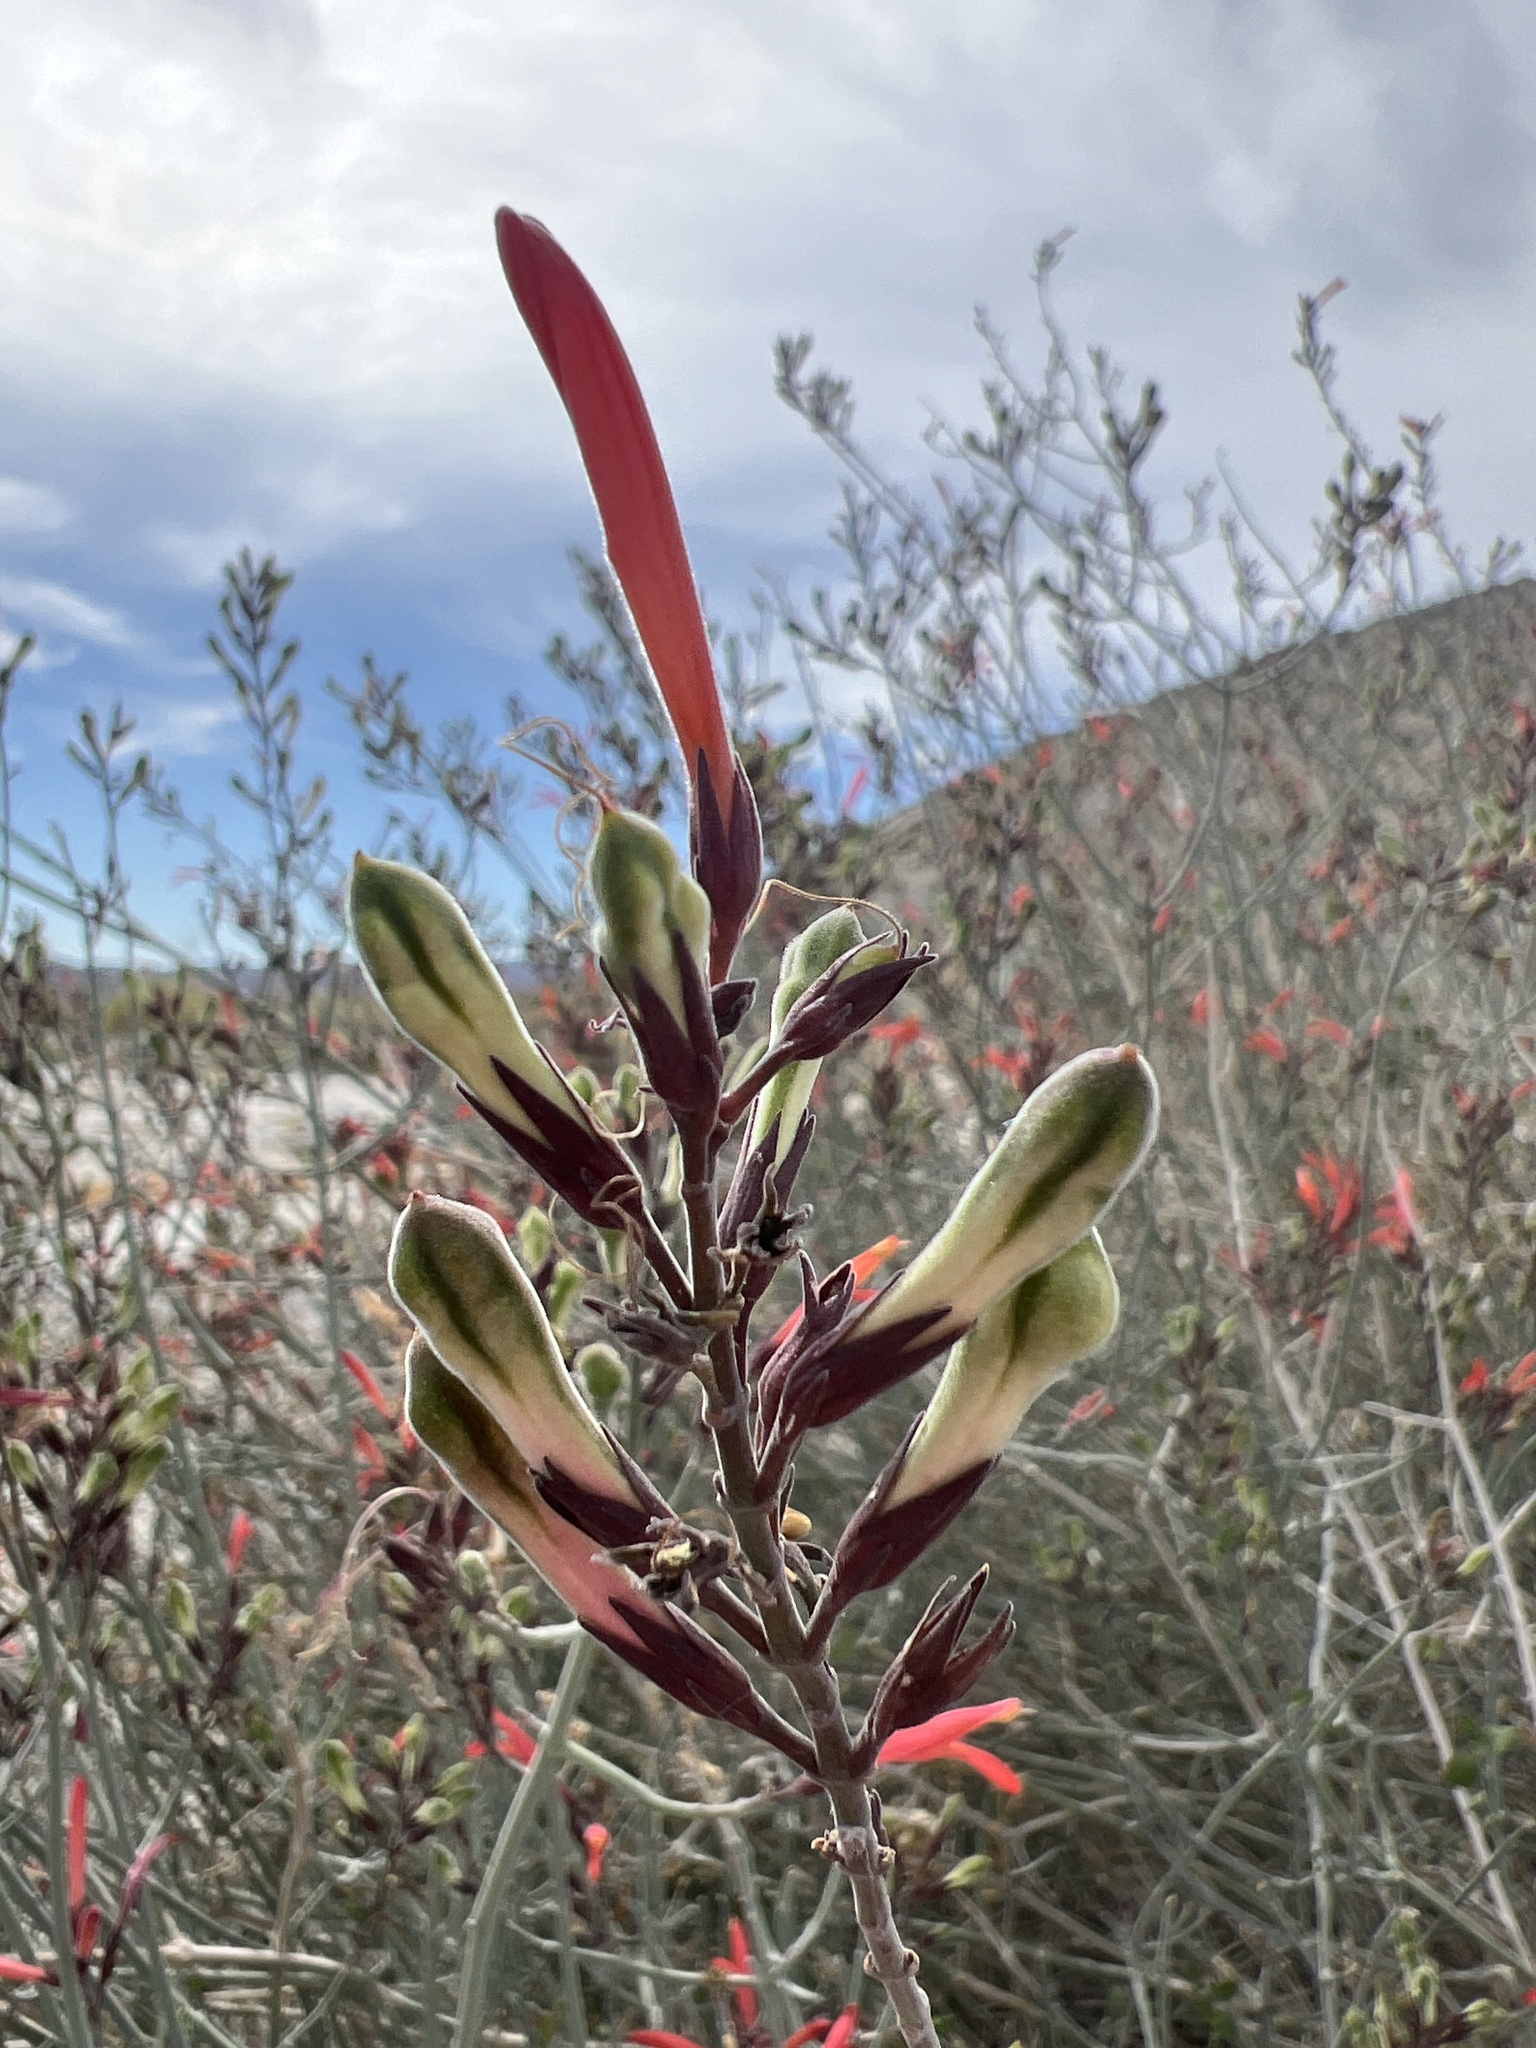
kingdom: Plantae
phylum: Tracheophyta
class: Magnoliopsida
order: Lamiales
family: Acanthaceae
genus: Justicia
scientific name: Justicia californica
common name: Chuparosa-honeysuckle
